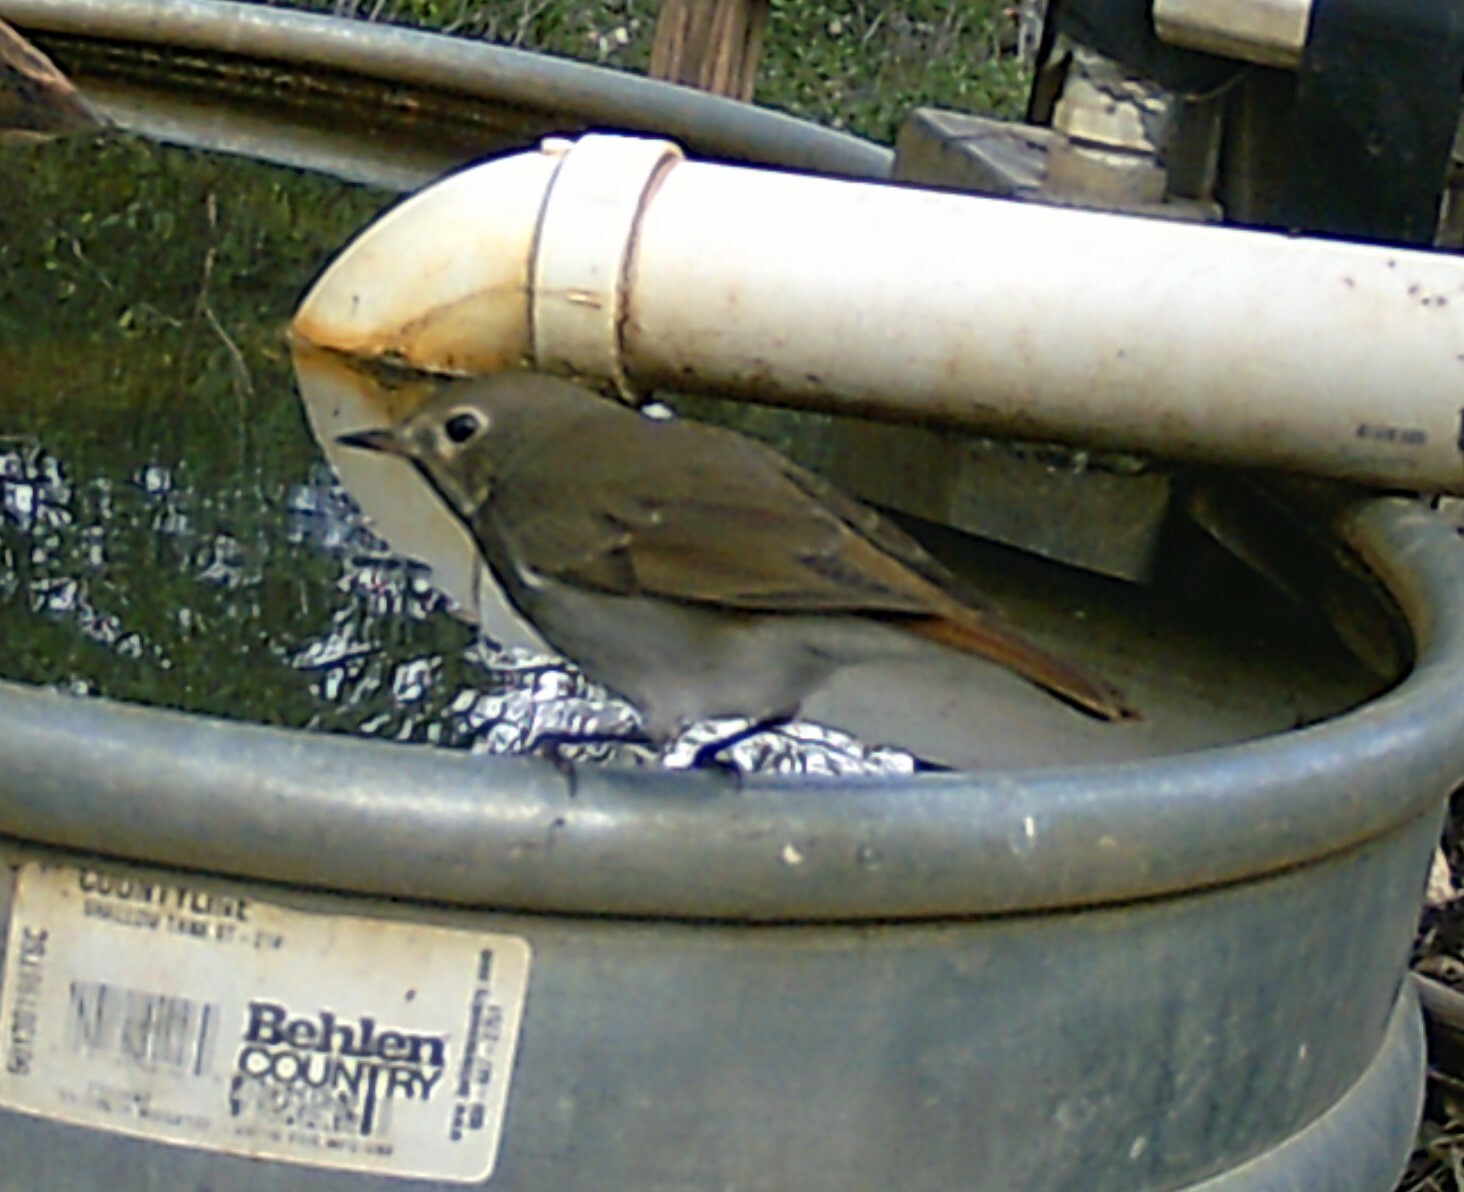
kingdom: Animalia
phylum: Chordata
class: Aves
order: Passeriformes
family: Turdidae
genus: Catharus
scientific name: Catharus guttatus
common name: Hermit thrush
